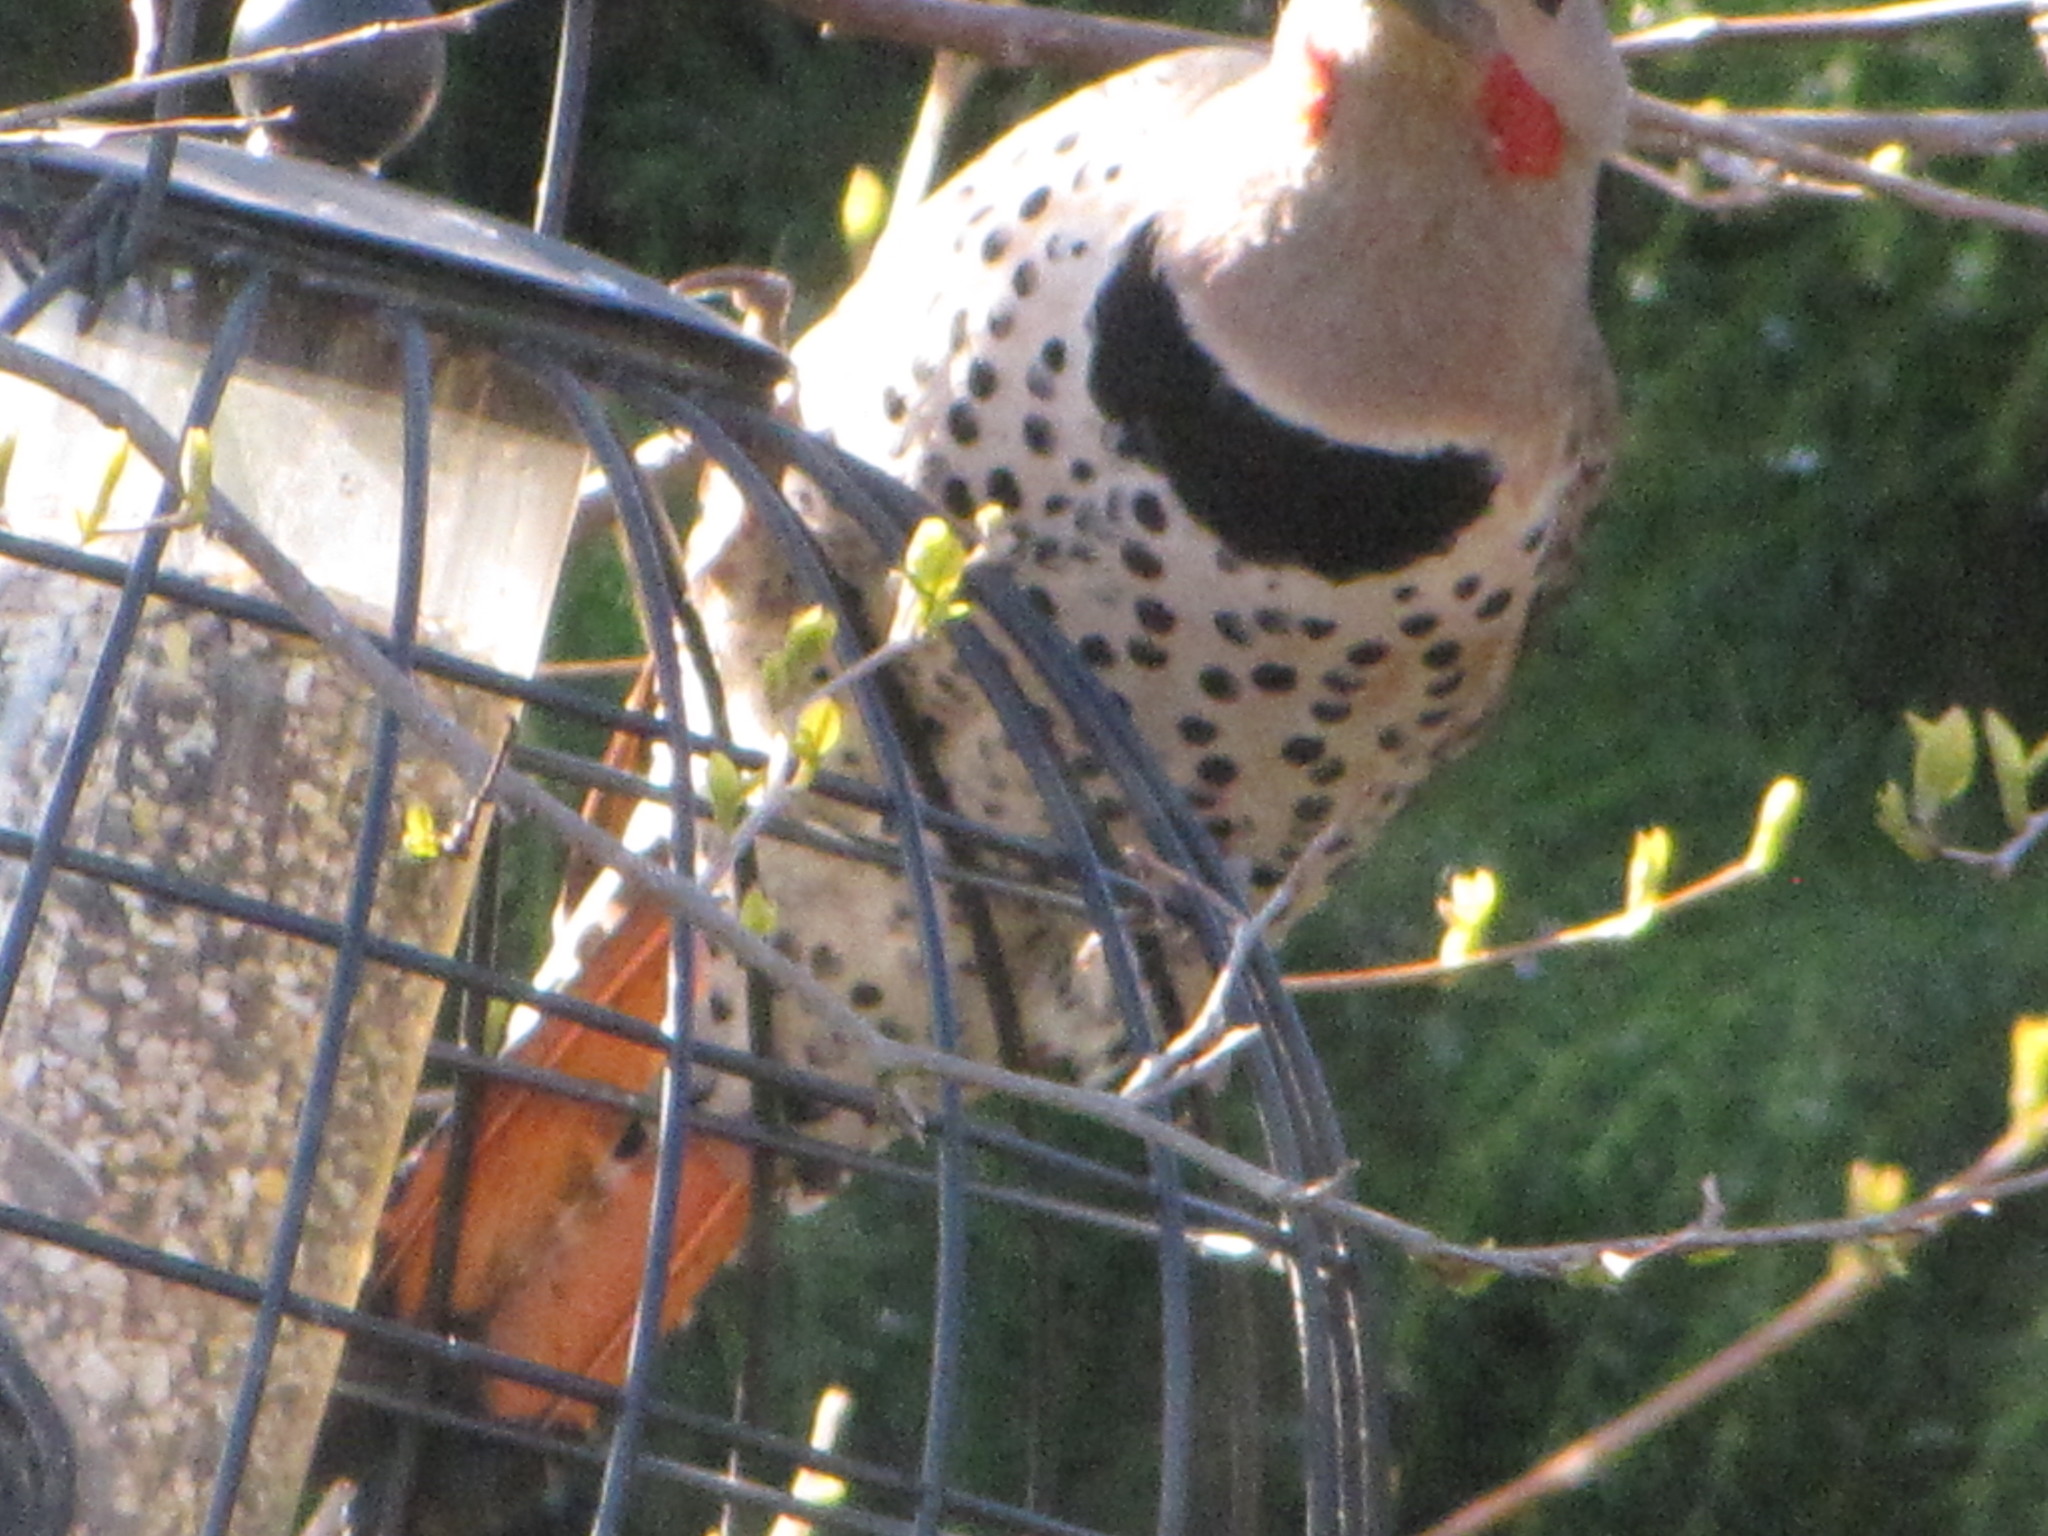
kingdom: Animalia
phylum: Chordata
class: Aves
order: Piciformes
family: Picidae
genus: Colaptes
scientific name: Colaptes auratus
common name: Northern flicker
